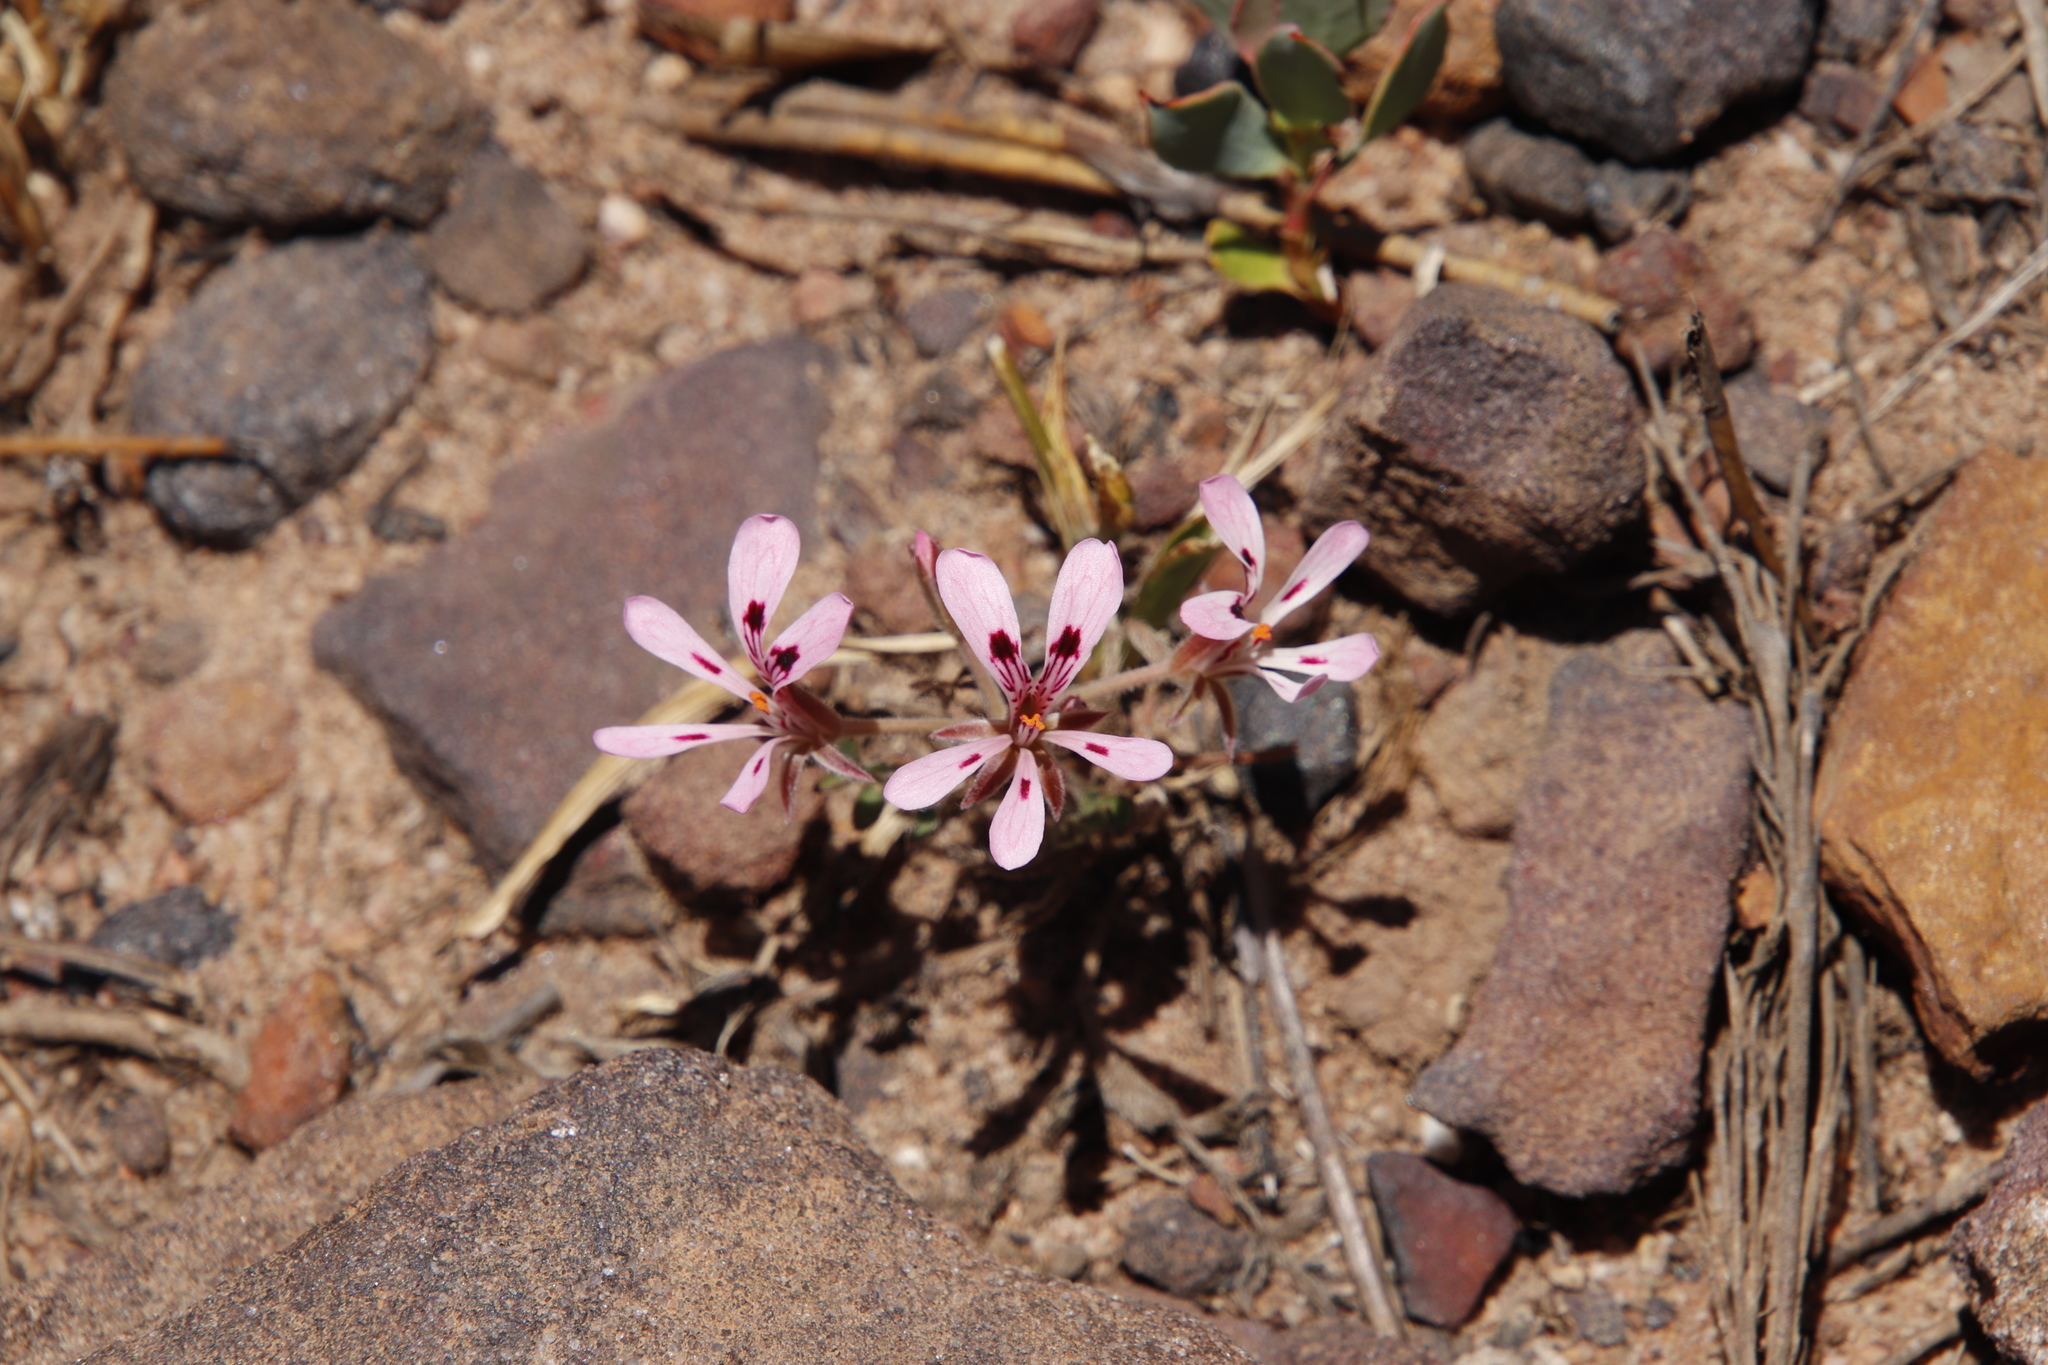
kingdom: Plantae
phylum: Tracheophyta
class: Magnoliopsida
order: Geraniales
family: Geraniaceae
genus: Pelargonium
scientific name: Pelargonium pinnatum
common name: Pinnated pelargonium
